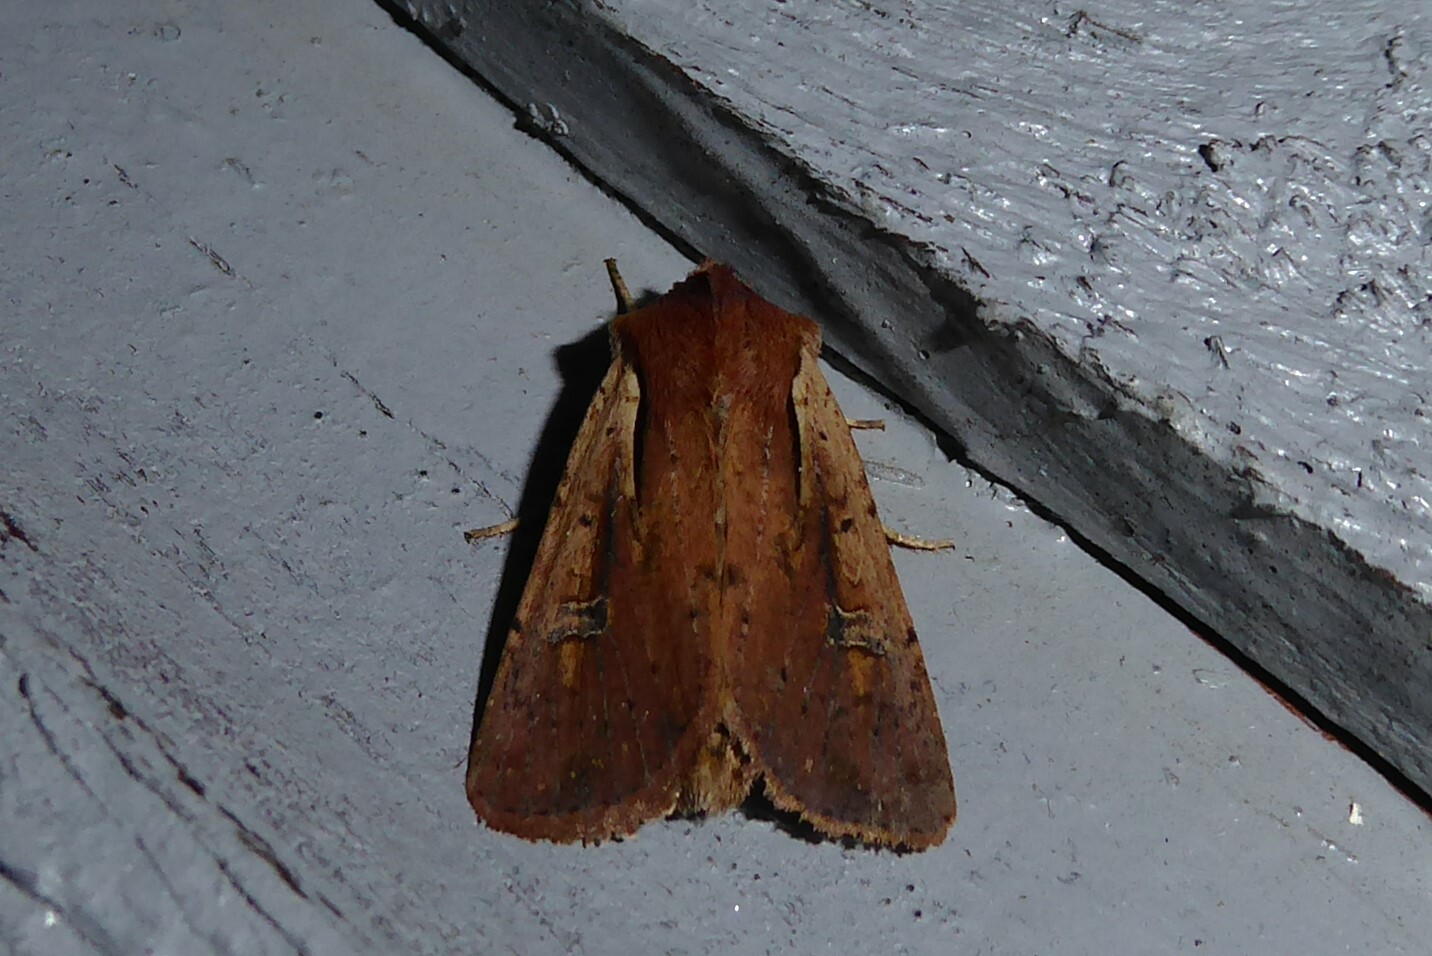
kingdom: Animalia
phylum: Arthropoda
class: Insecta
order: Lepidoptera
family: Noctuidae
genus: Ichneutica
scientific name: Ichneutica atristriga
